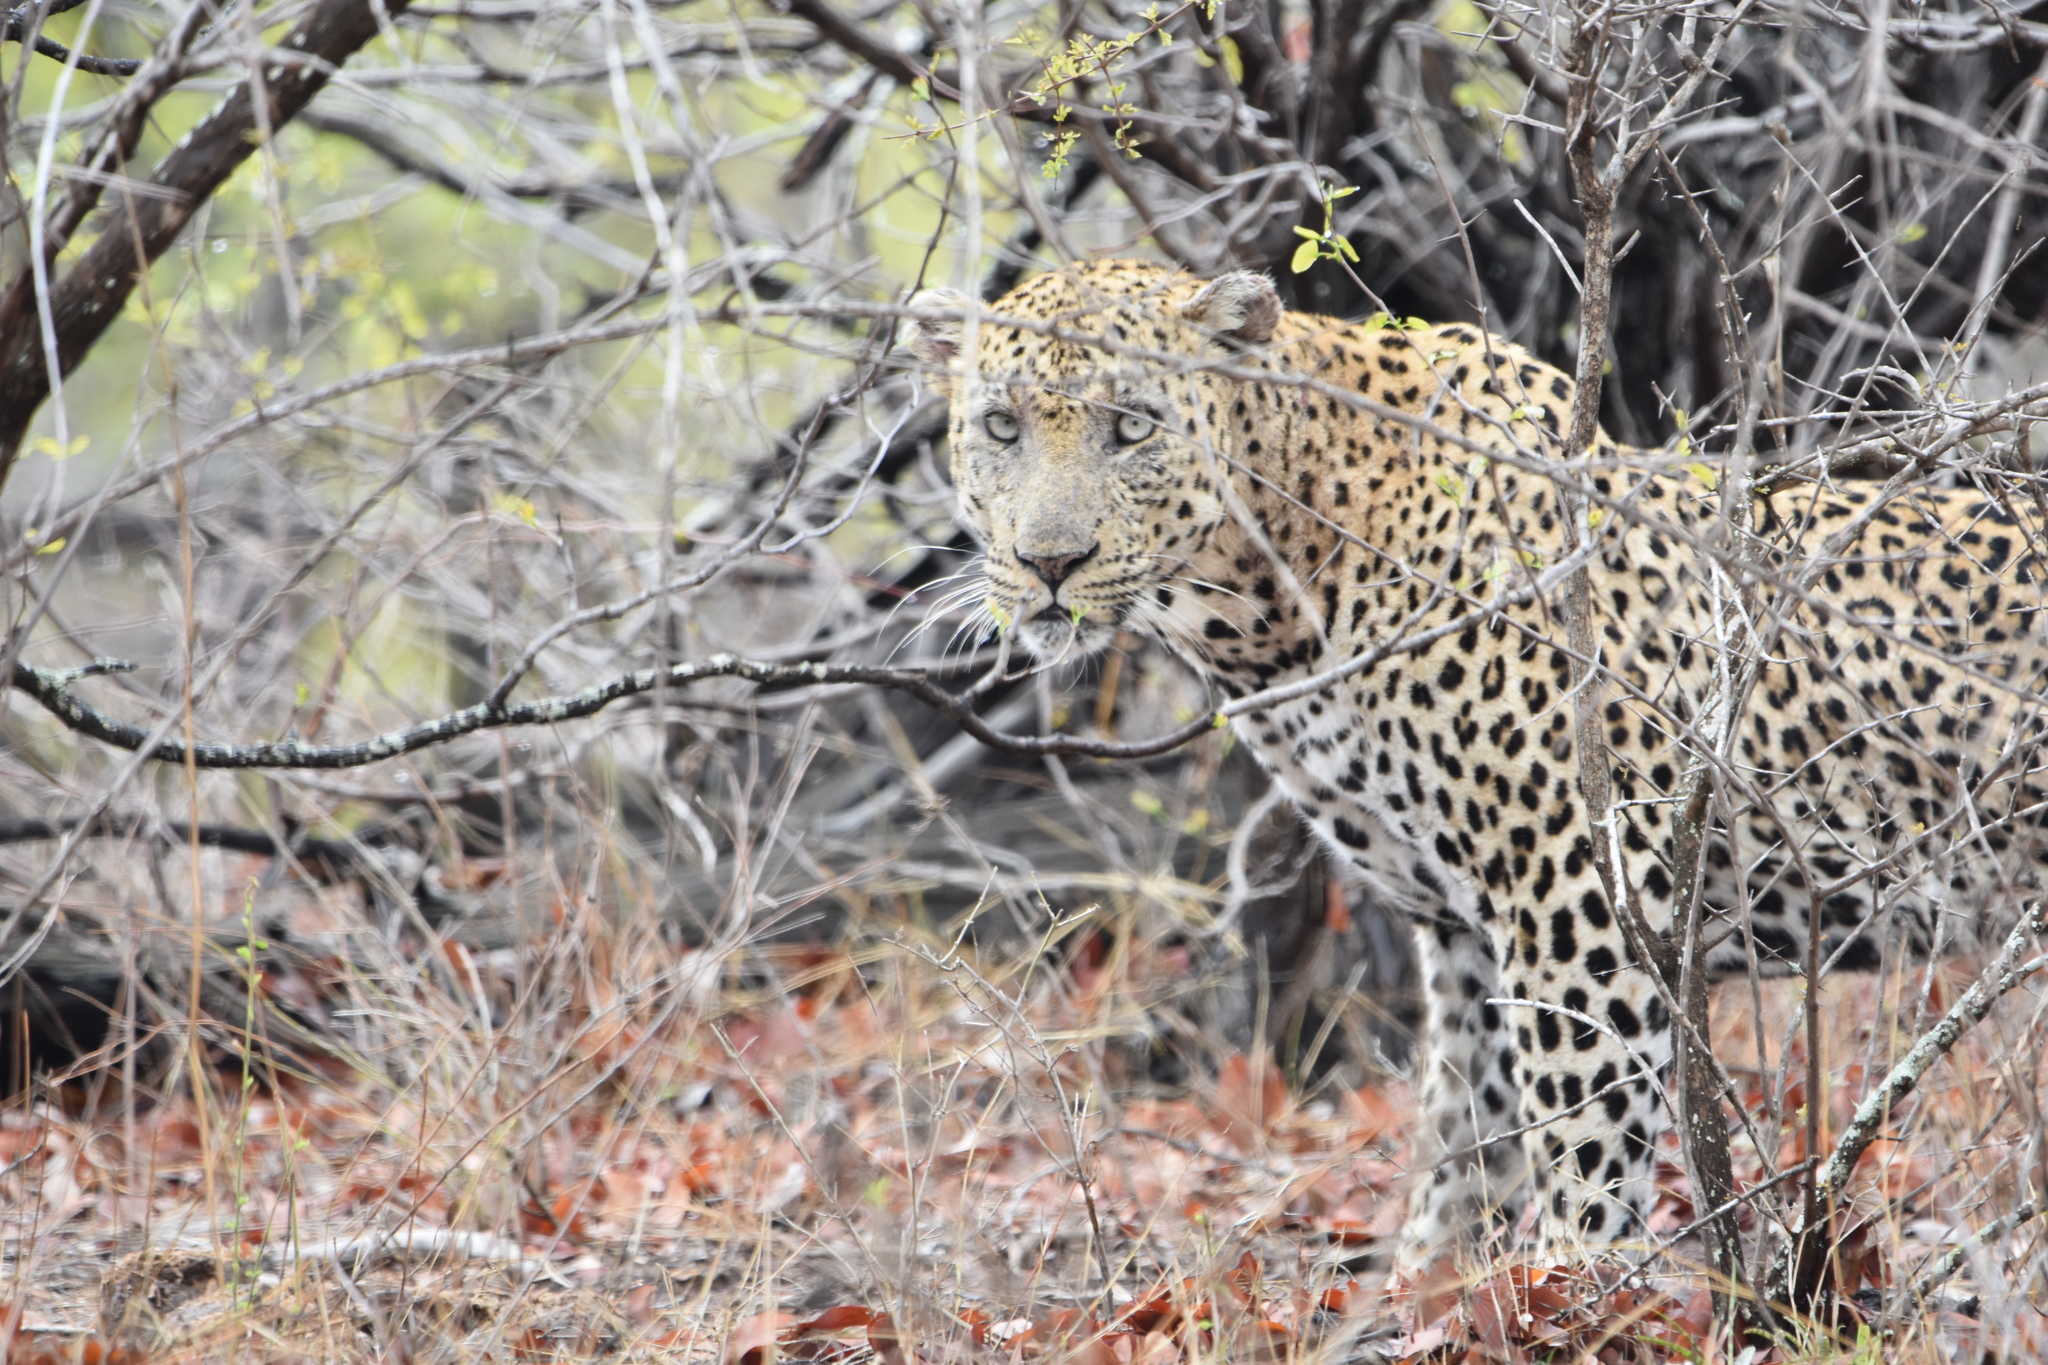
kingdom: Animalia
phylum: Chordata
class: Mammalia
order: Carnivora
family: Felidae
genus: Panthera
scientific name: Panthera pardus
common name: Leopard
